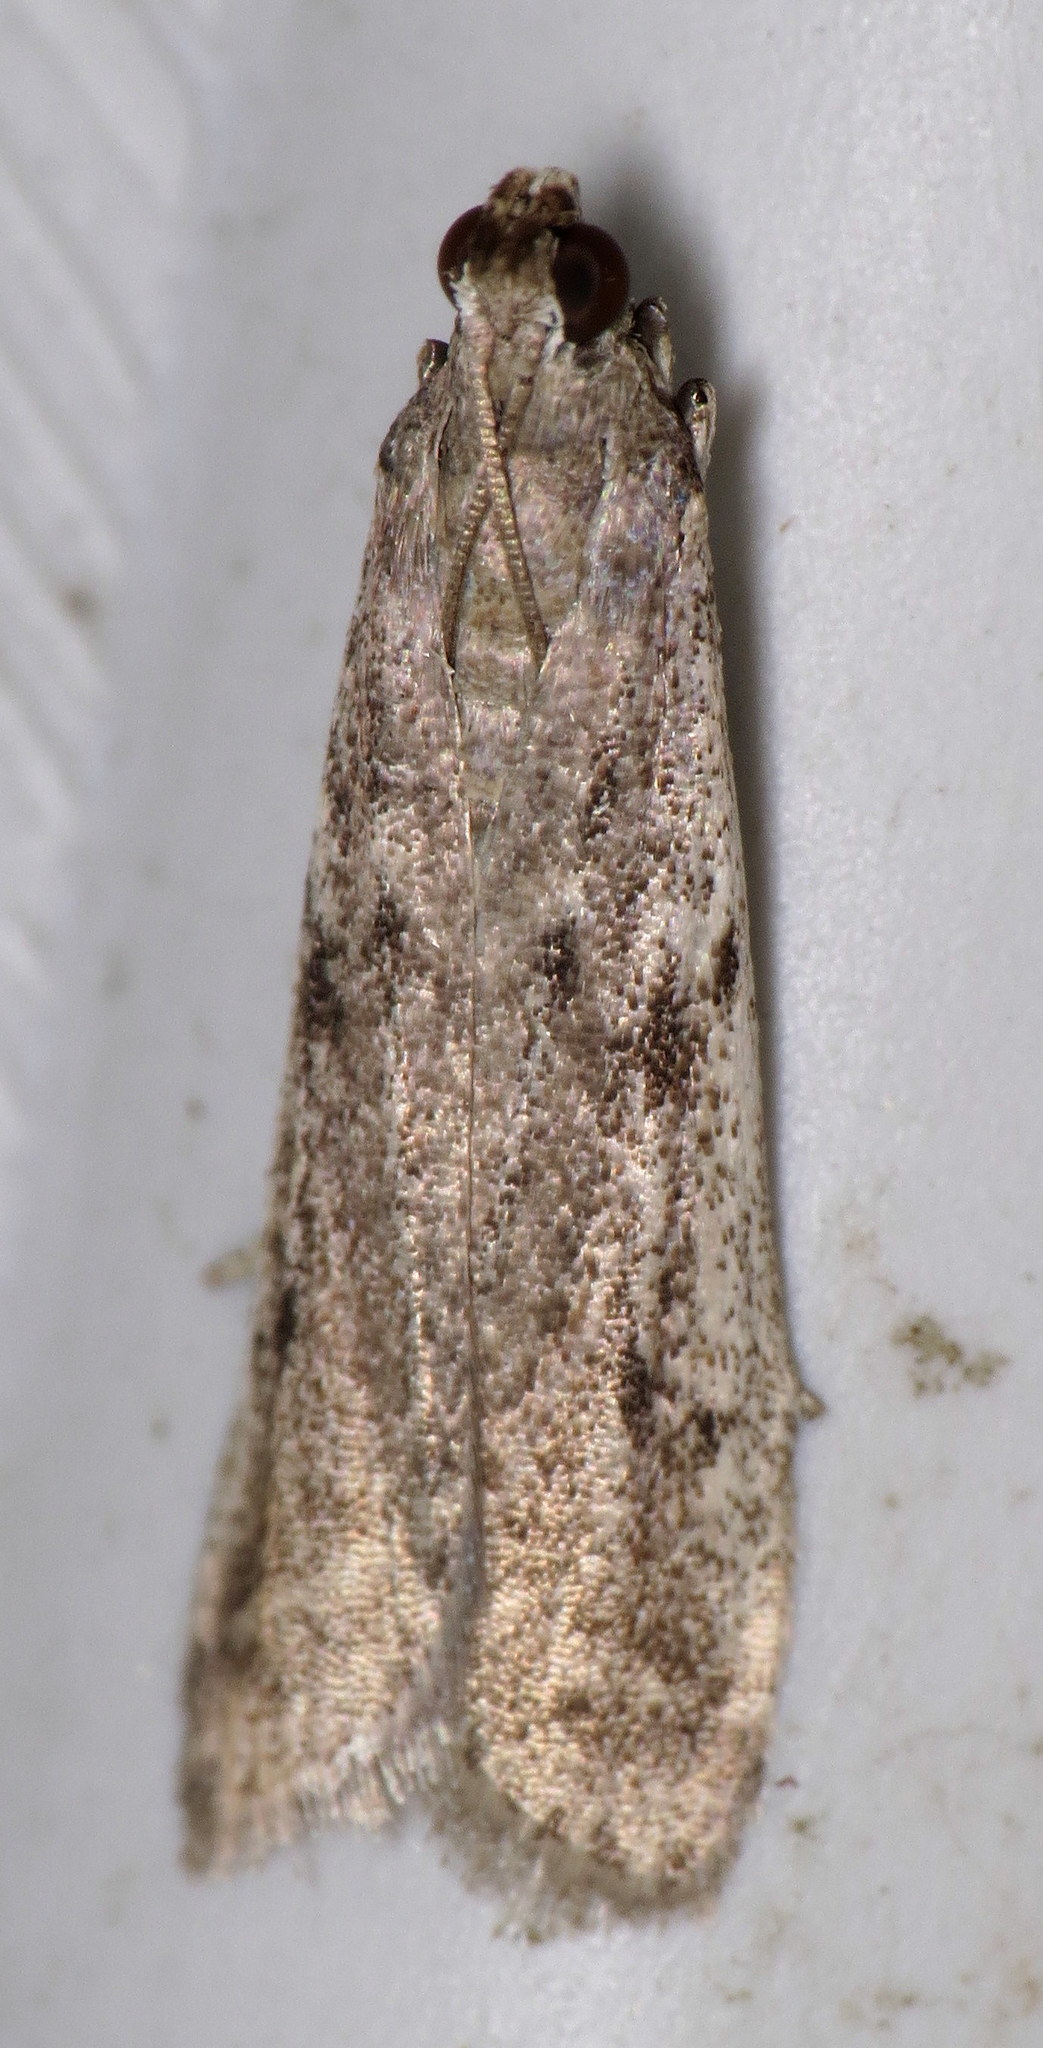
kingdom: Animalia
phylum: Arthropoda
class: Insecta
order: Lepidoptera
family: Pyralidae
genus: Phycitodes
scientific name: Phycitodes mucidellus
